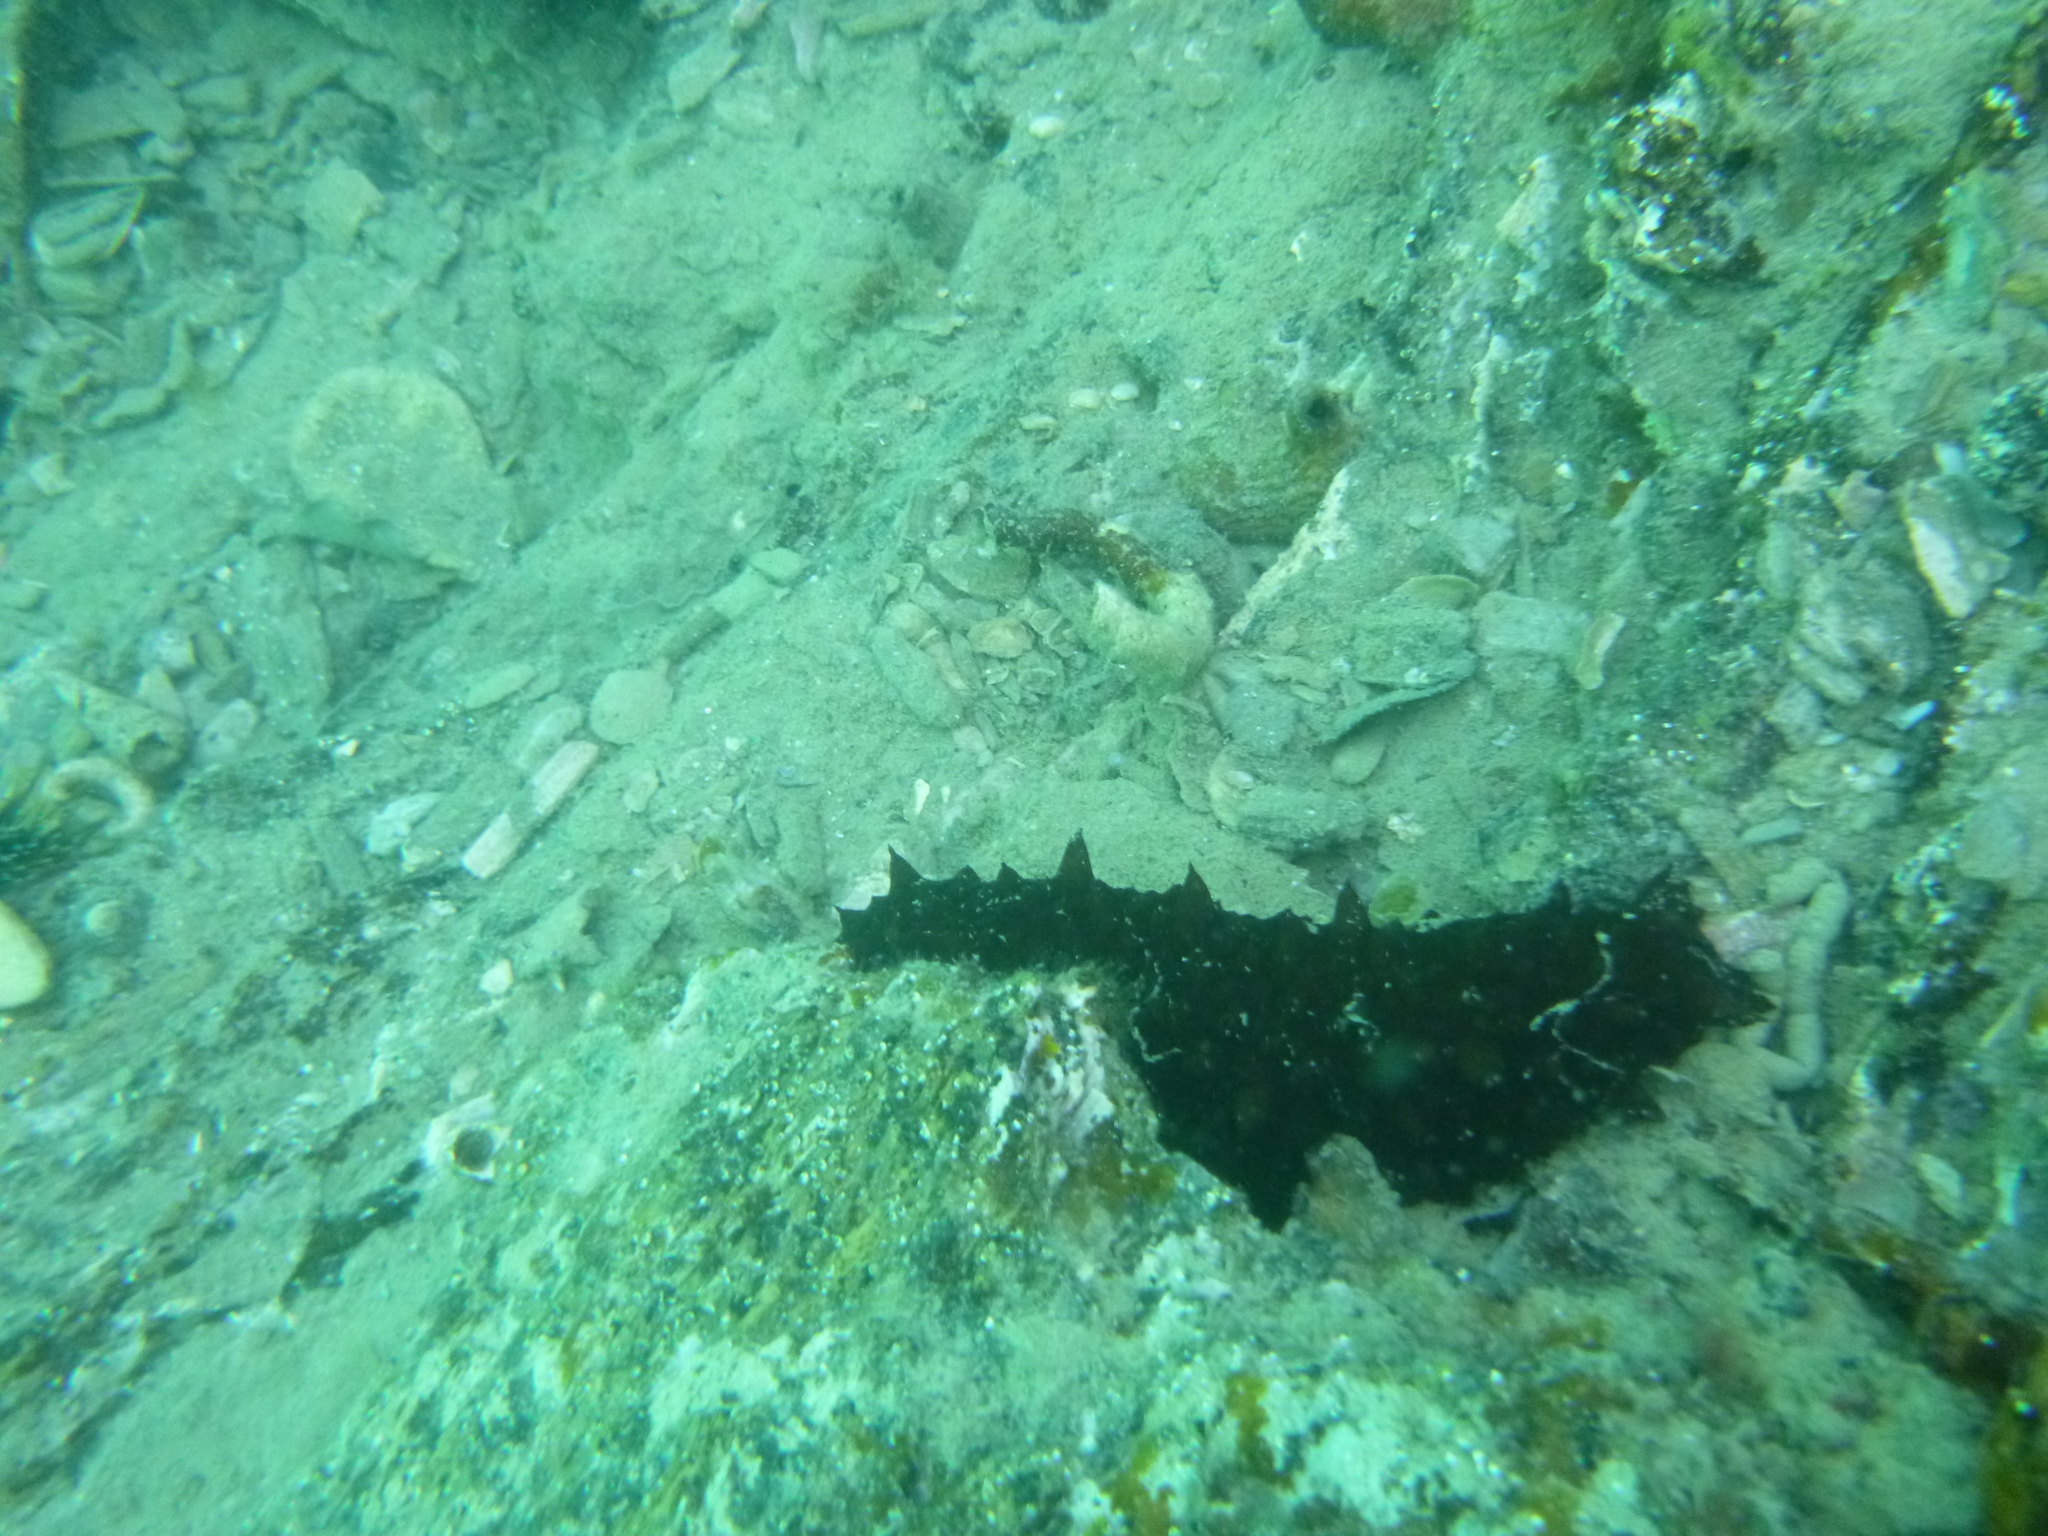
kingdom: Animalia
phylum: Echinodermata
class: Holothuroidea
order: Synallactida
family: Stichopodidae
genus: Australostichopus
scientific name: Australostichopus mollis
